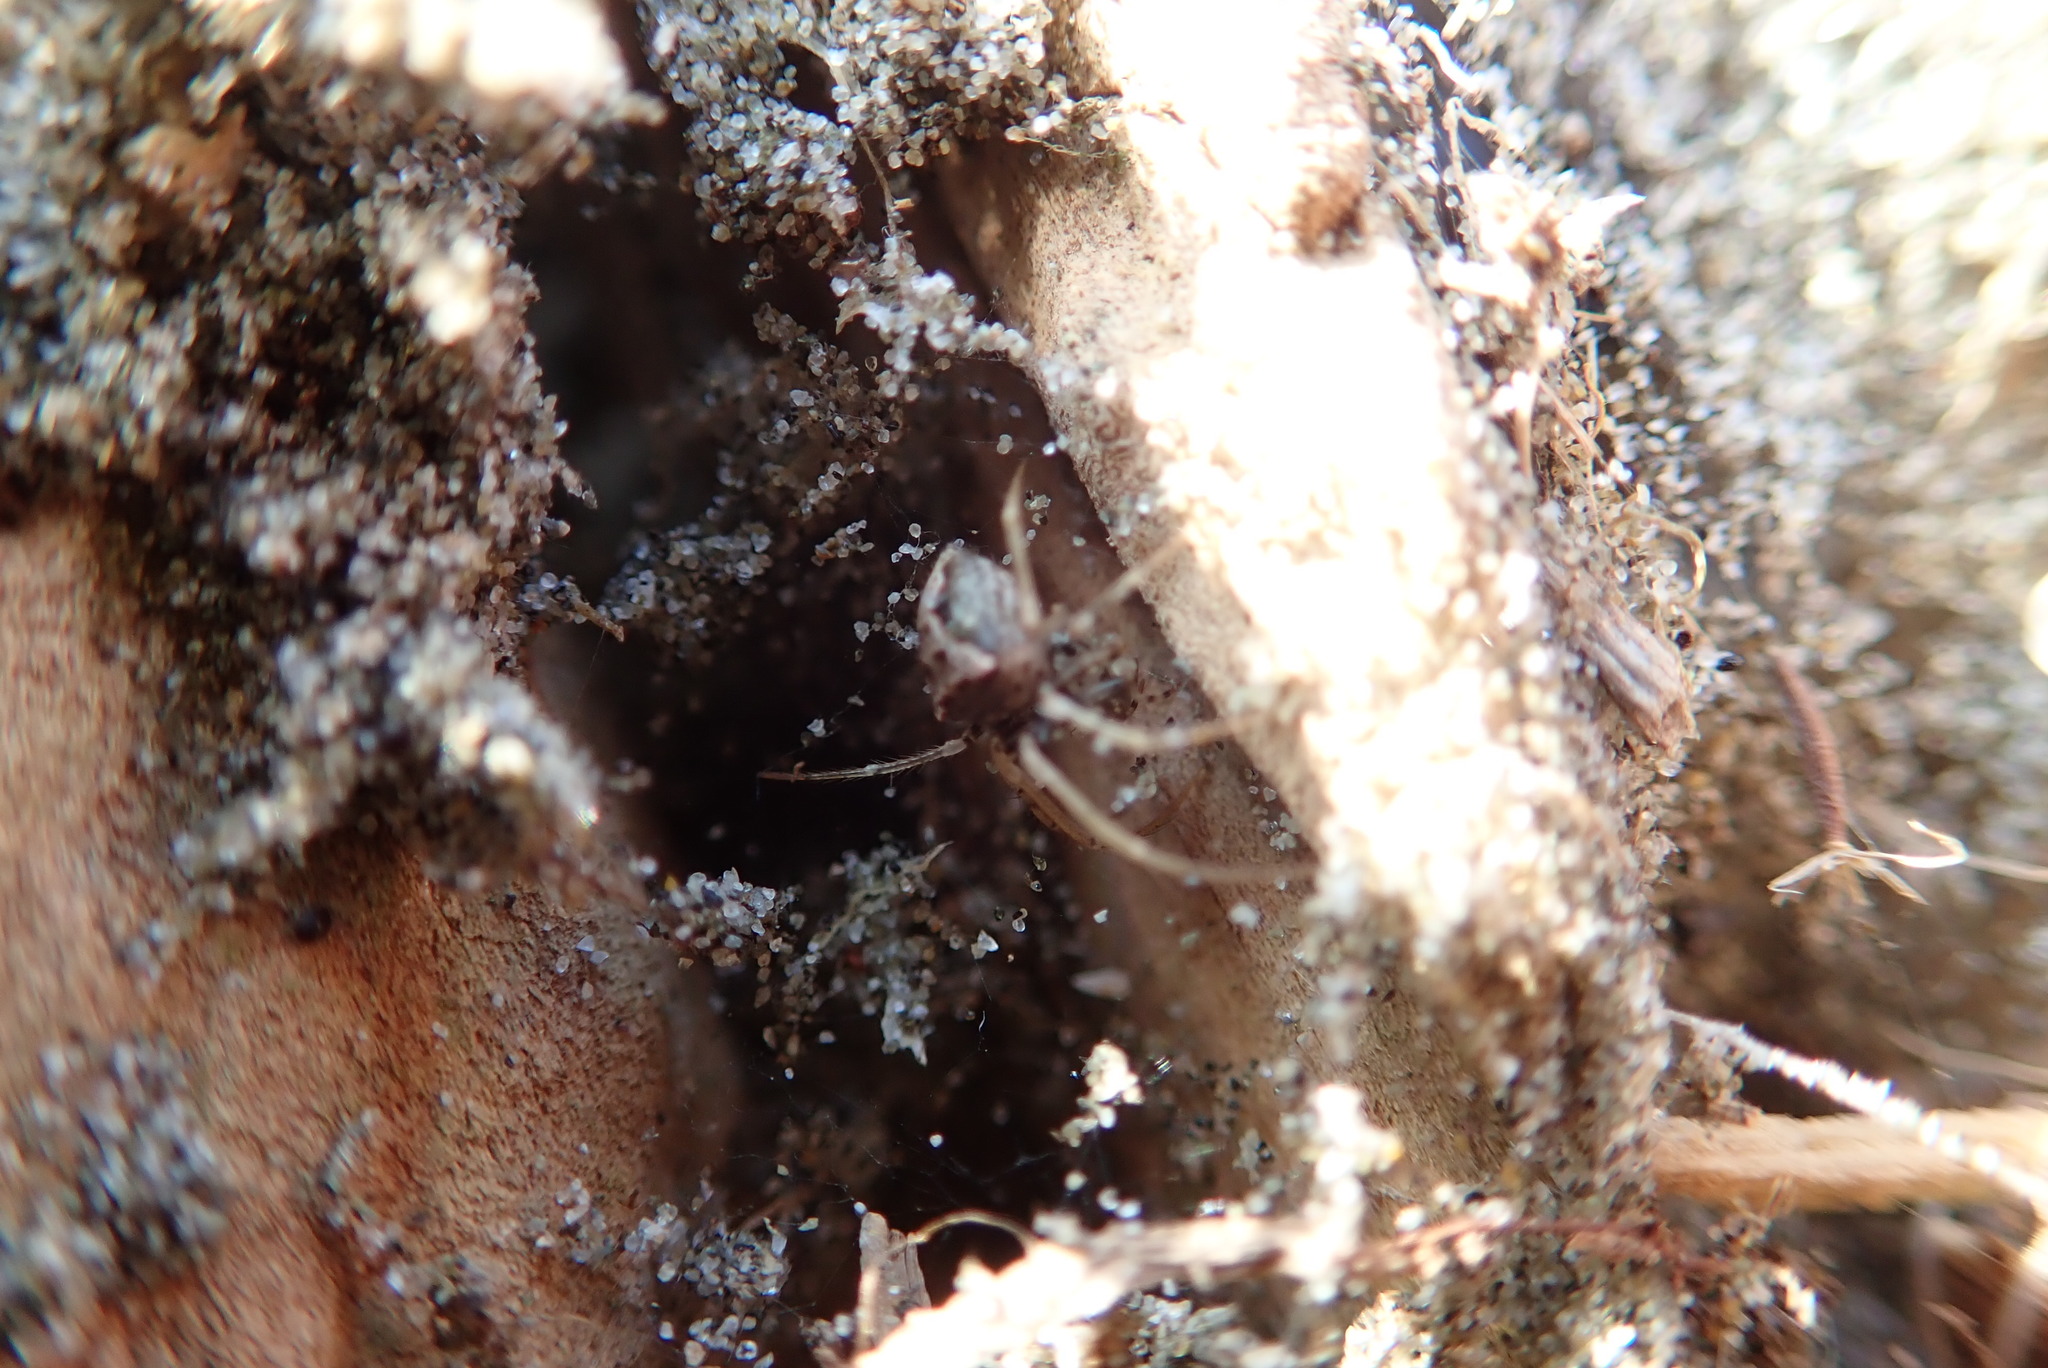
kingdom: Animalia
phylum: Arthropoda
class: Arachnida
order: Araneae
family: Mimetidae
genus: Australomimetus
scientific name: Australomimetus hartleyensis
